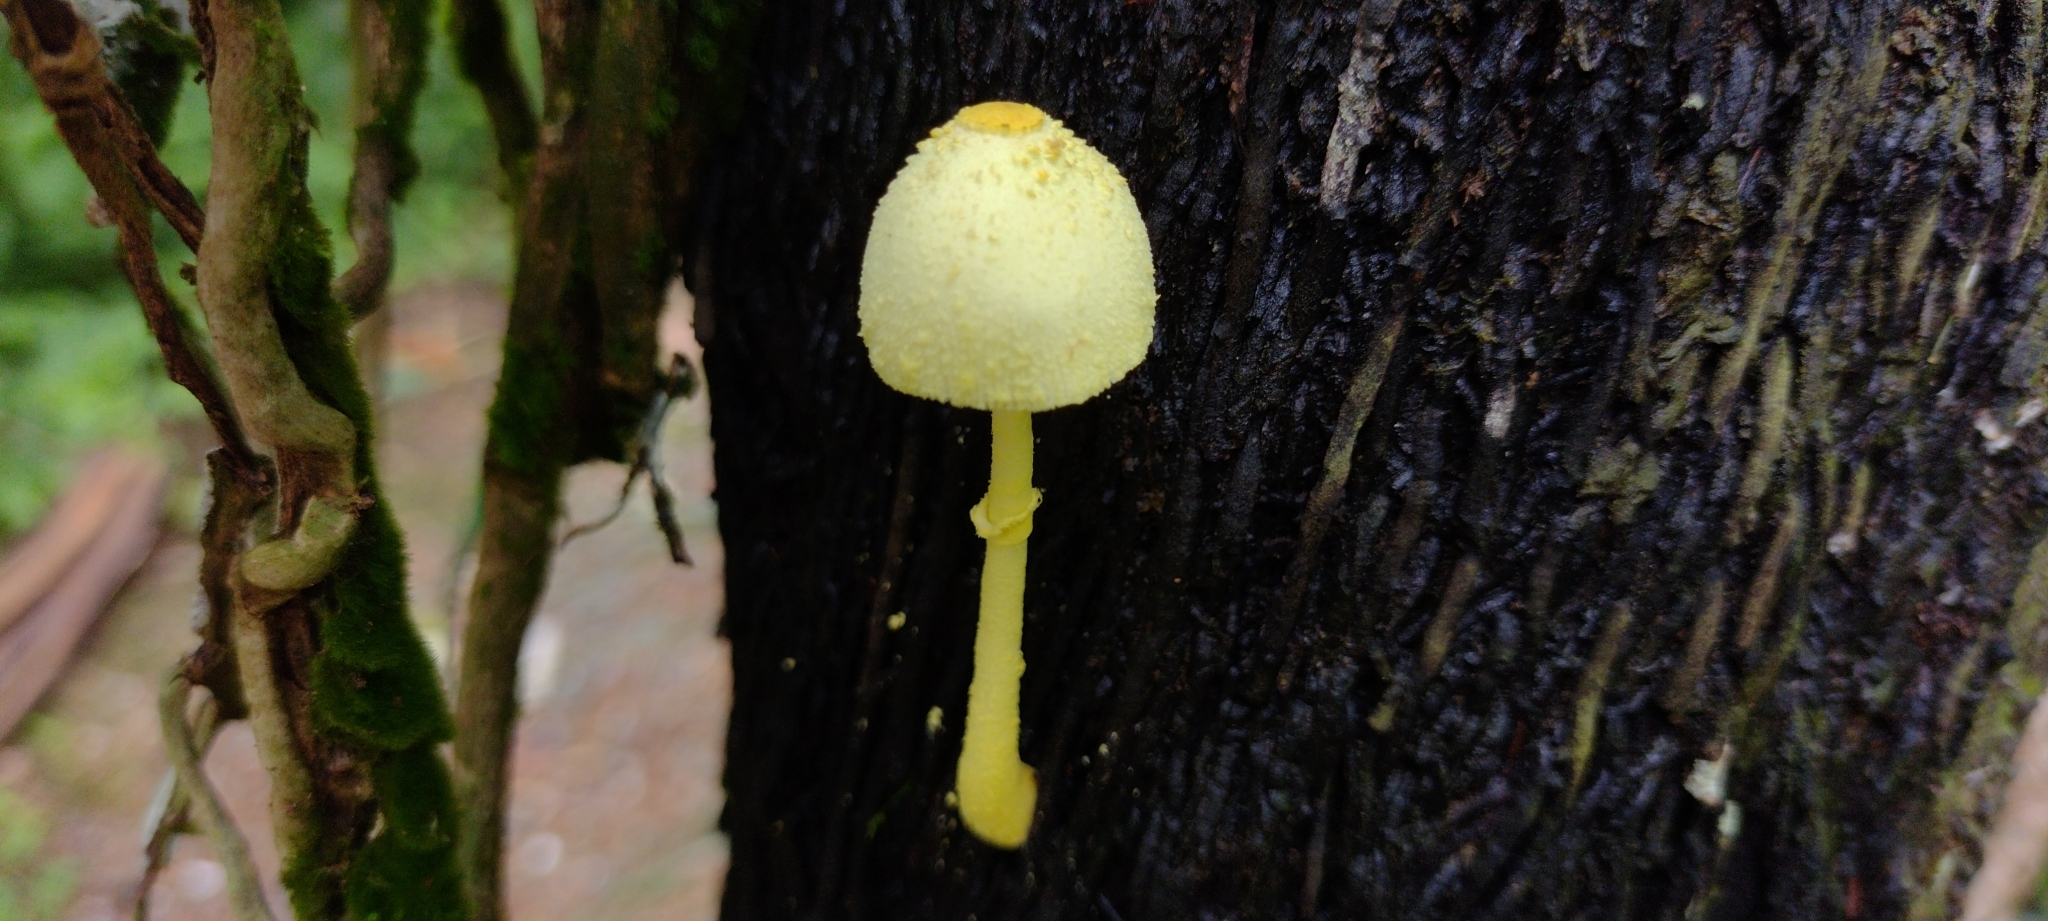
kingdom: Fungi
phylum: Basidiomycota
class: Agaricomycetes
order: Agaricales
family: Agaricaceae
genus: Leucocoprinus
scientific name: Leucocoprinus birnbaumii
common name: Plantpot dapperling
